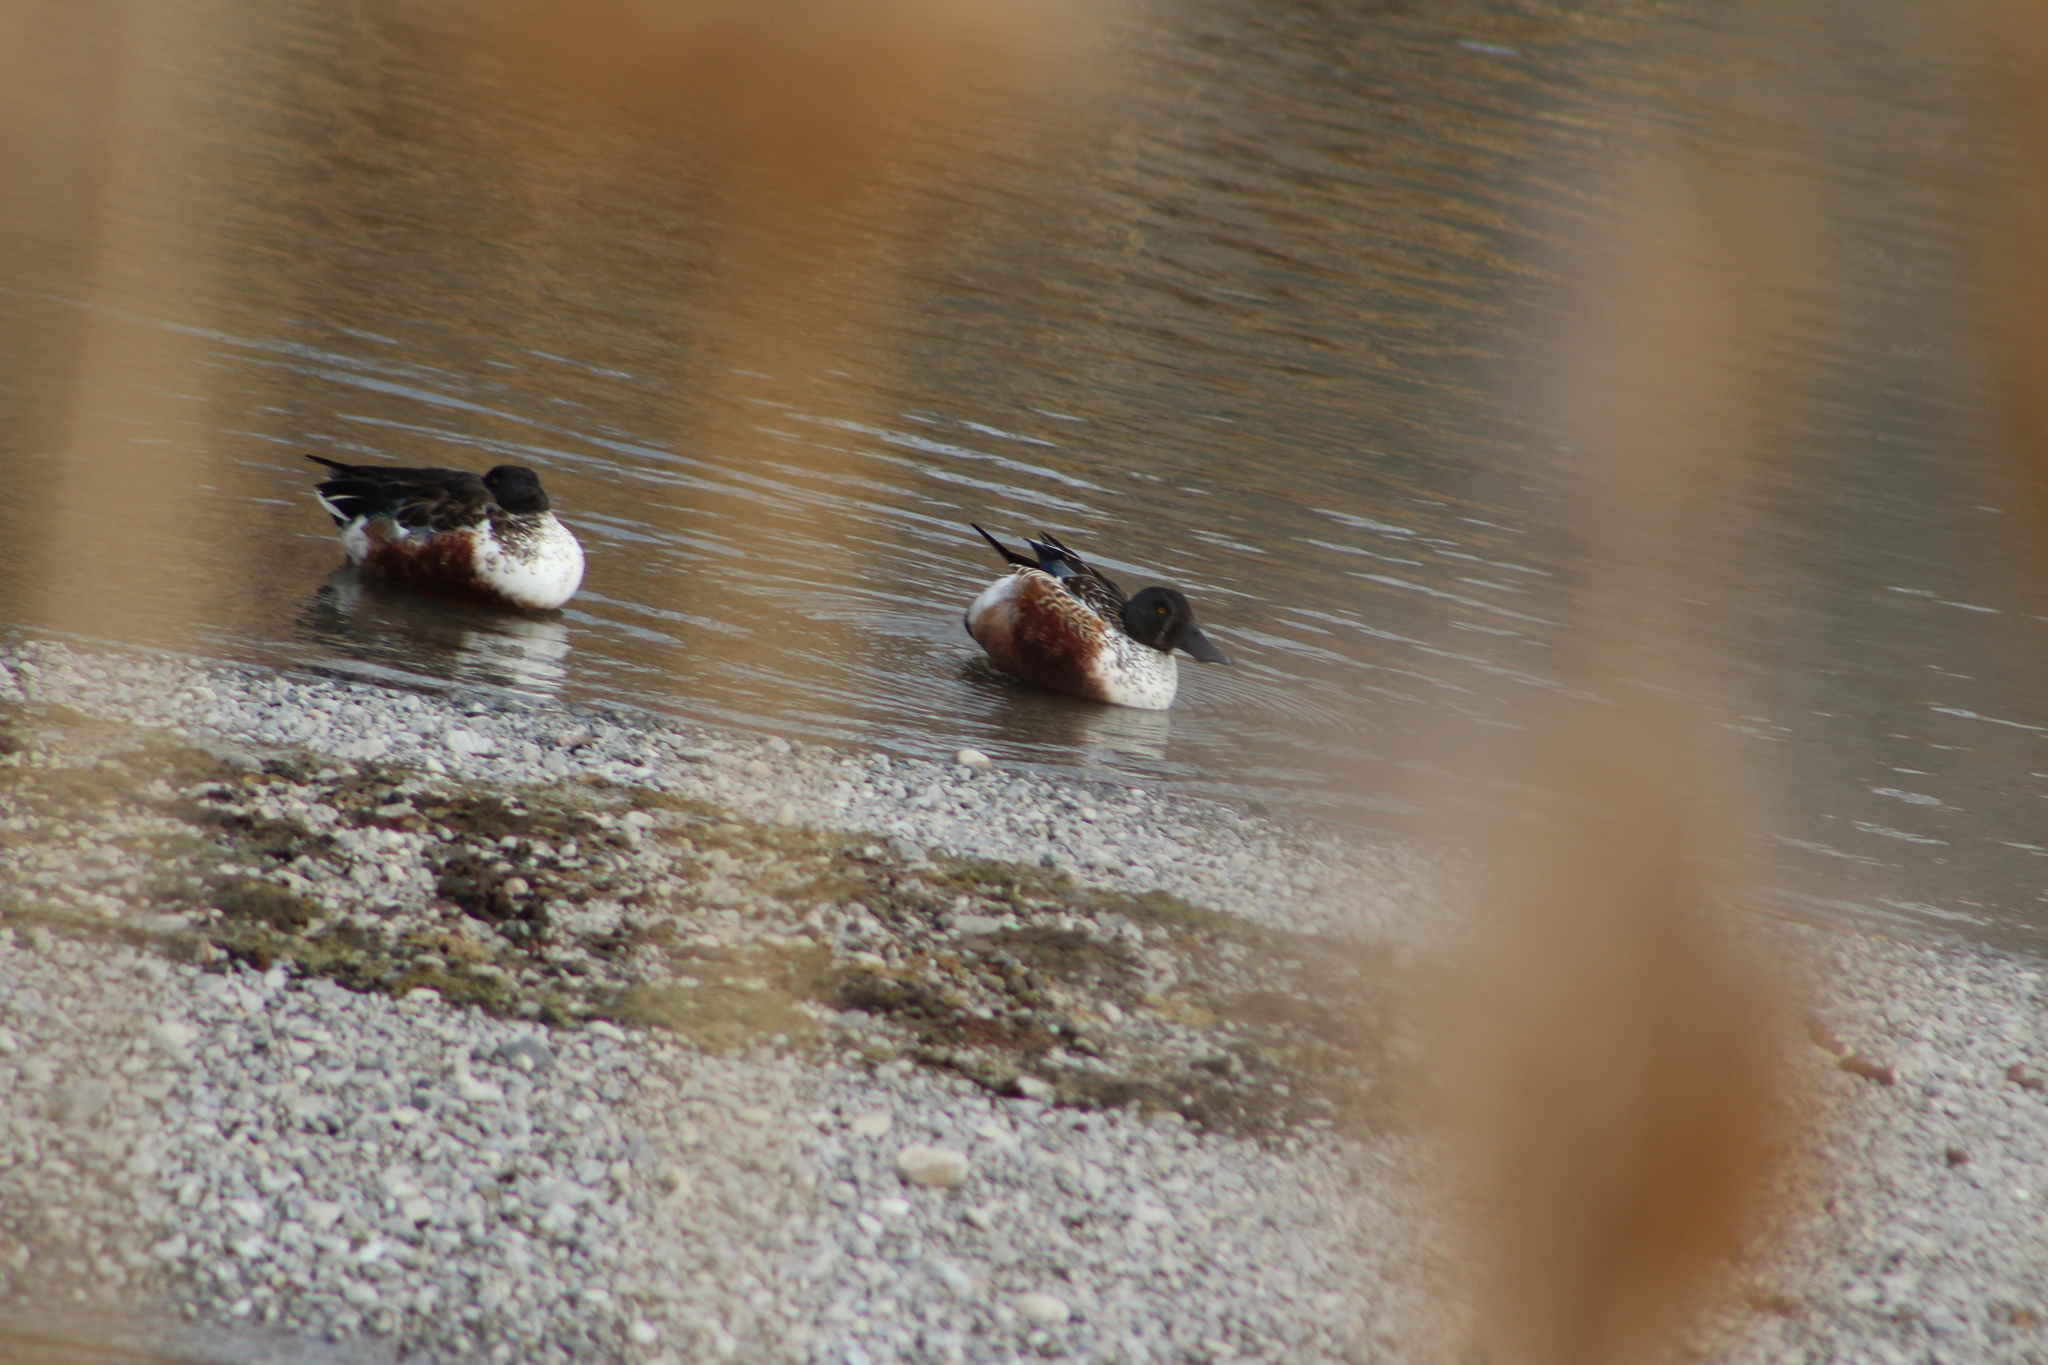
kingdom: Animalia
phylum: Chordata
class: Aves
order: Anseriformes
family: Anatidae
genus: Spatula
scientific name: Spatula clypeata
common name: Northern shoveler
